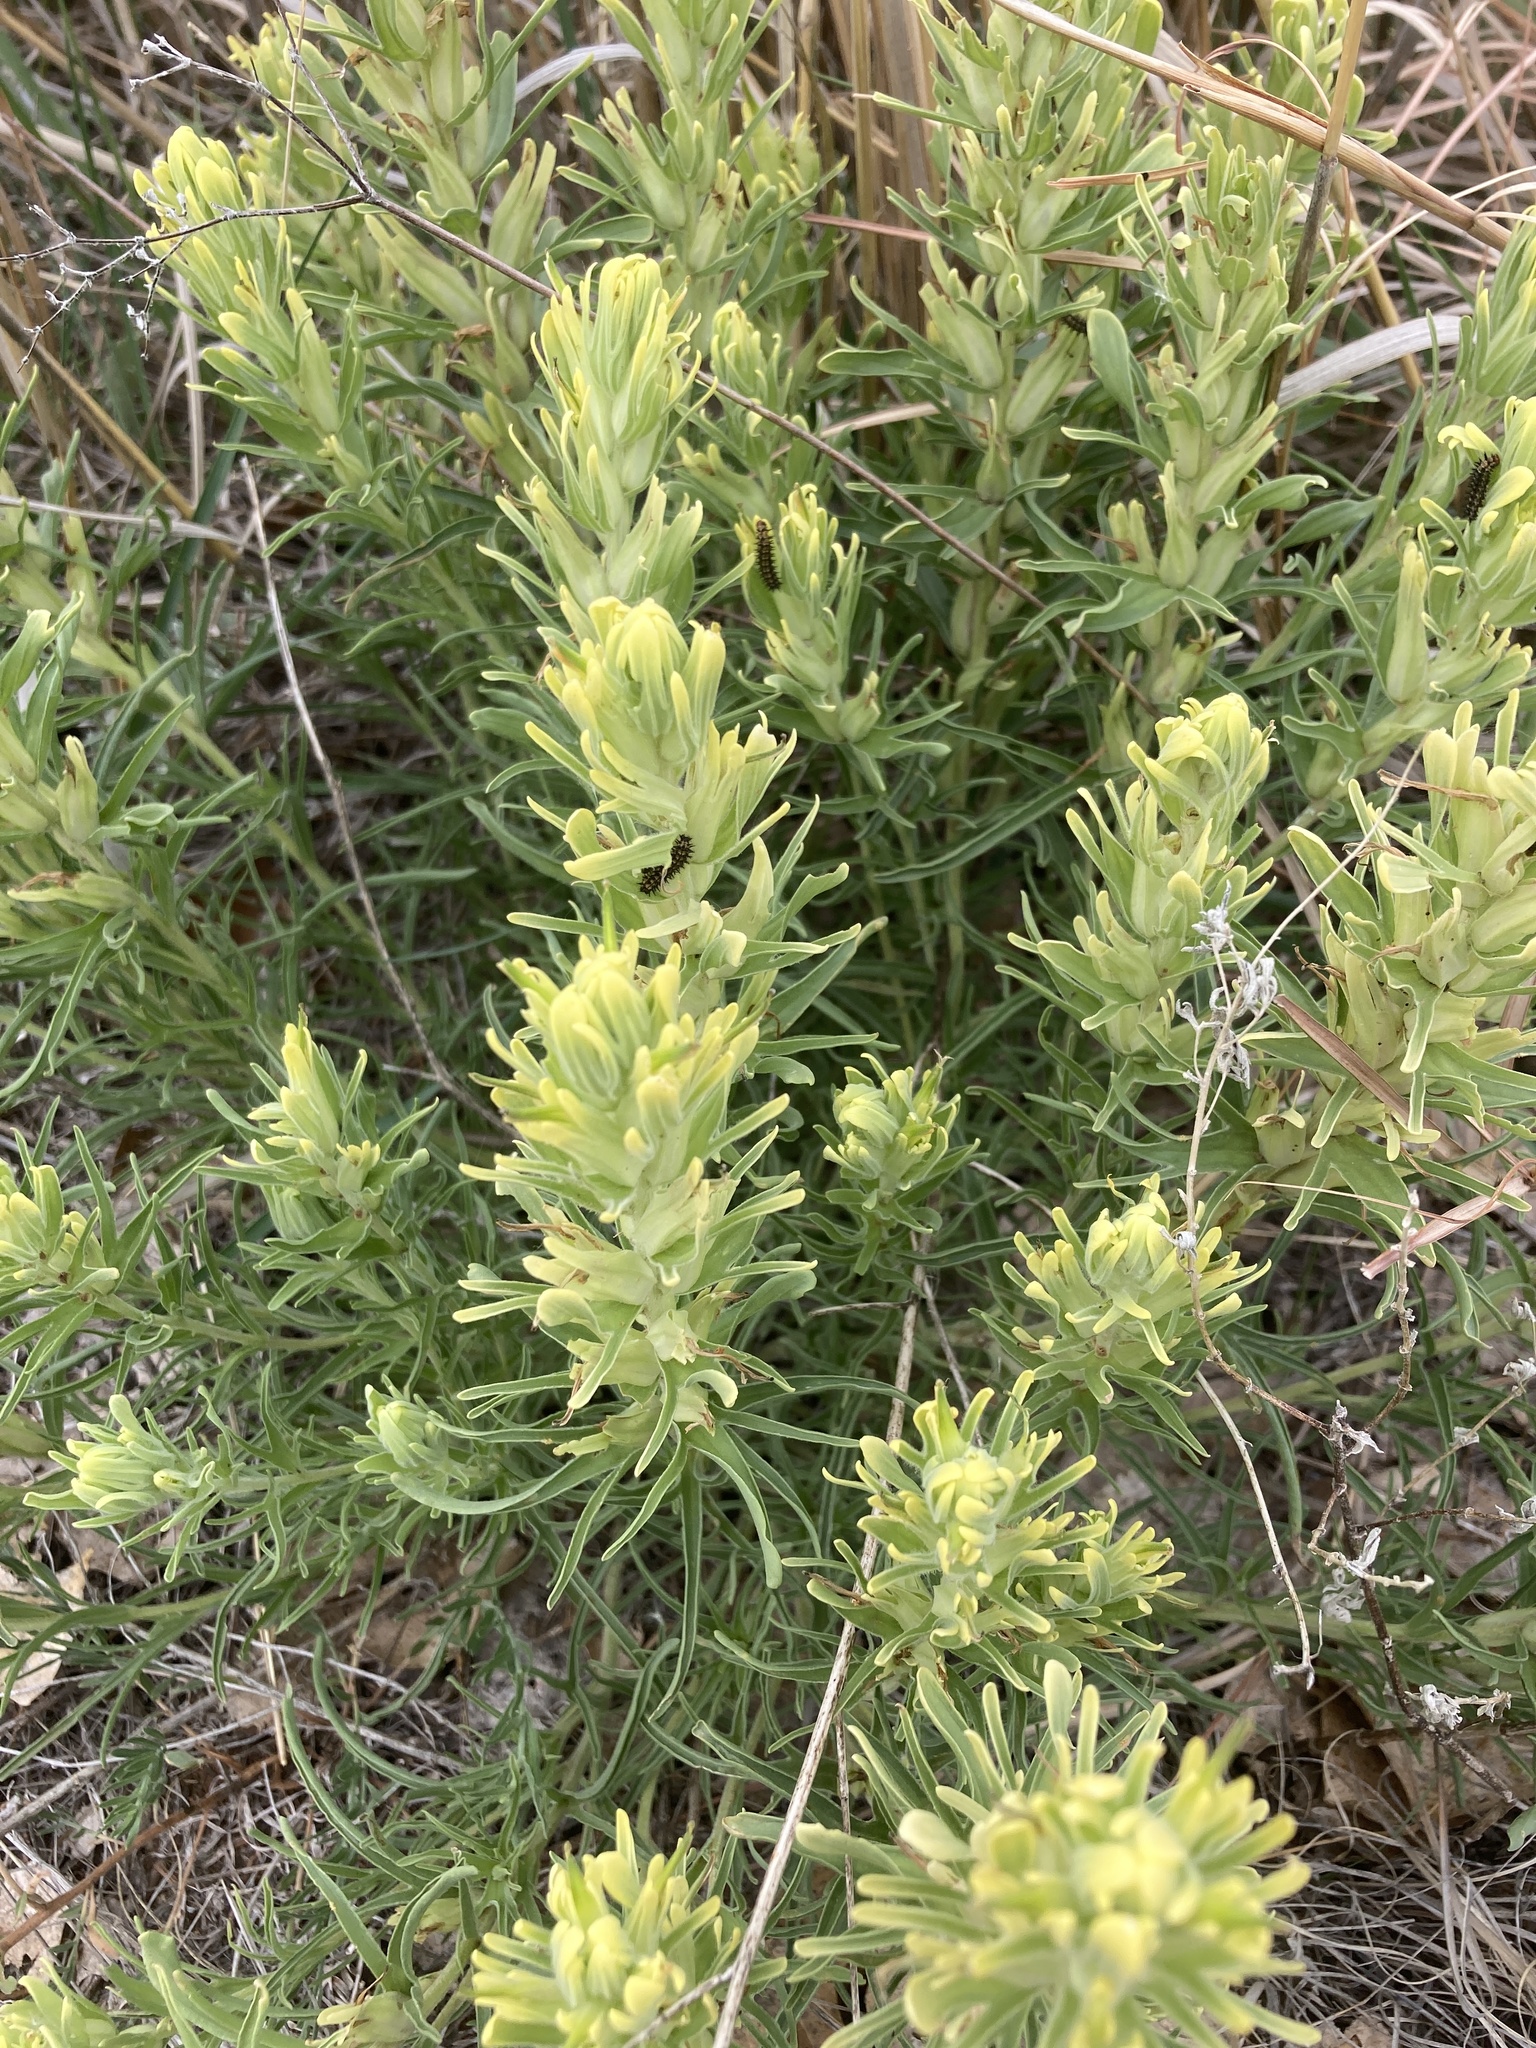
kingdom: Plantae
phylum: Tracheophyta
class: Magnoliopsida
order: Lamiales
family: Orobanchaceae
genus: Castilleja
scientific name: Castilleja citrina
